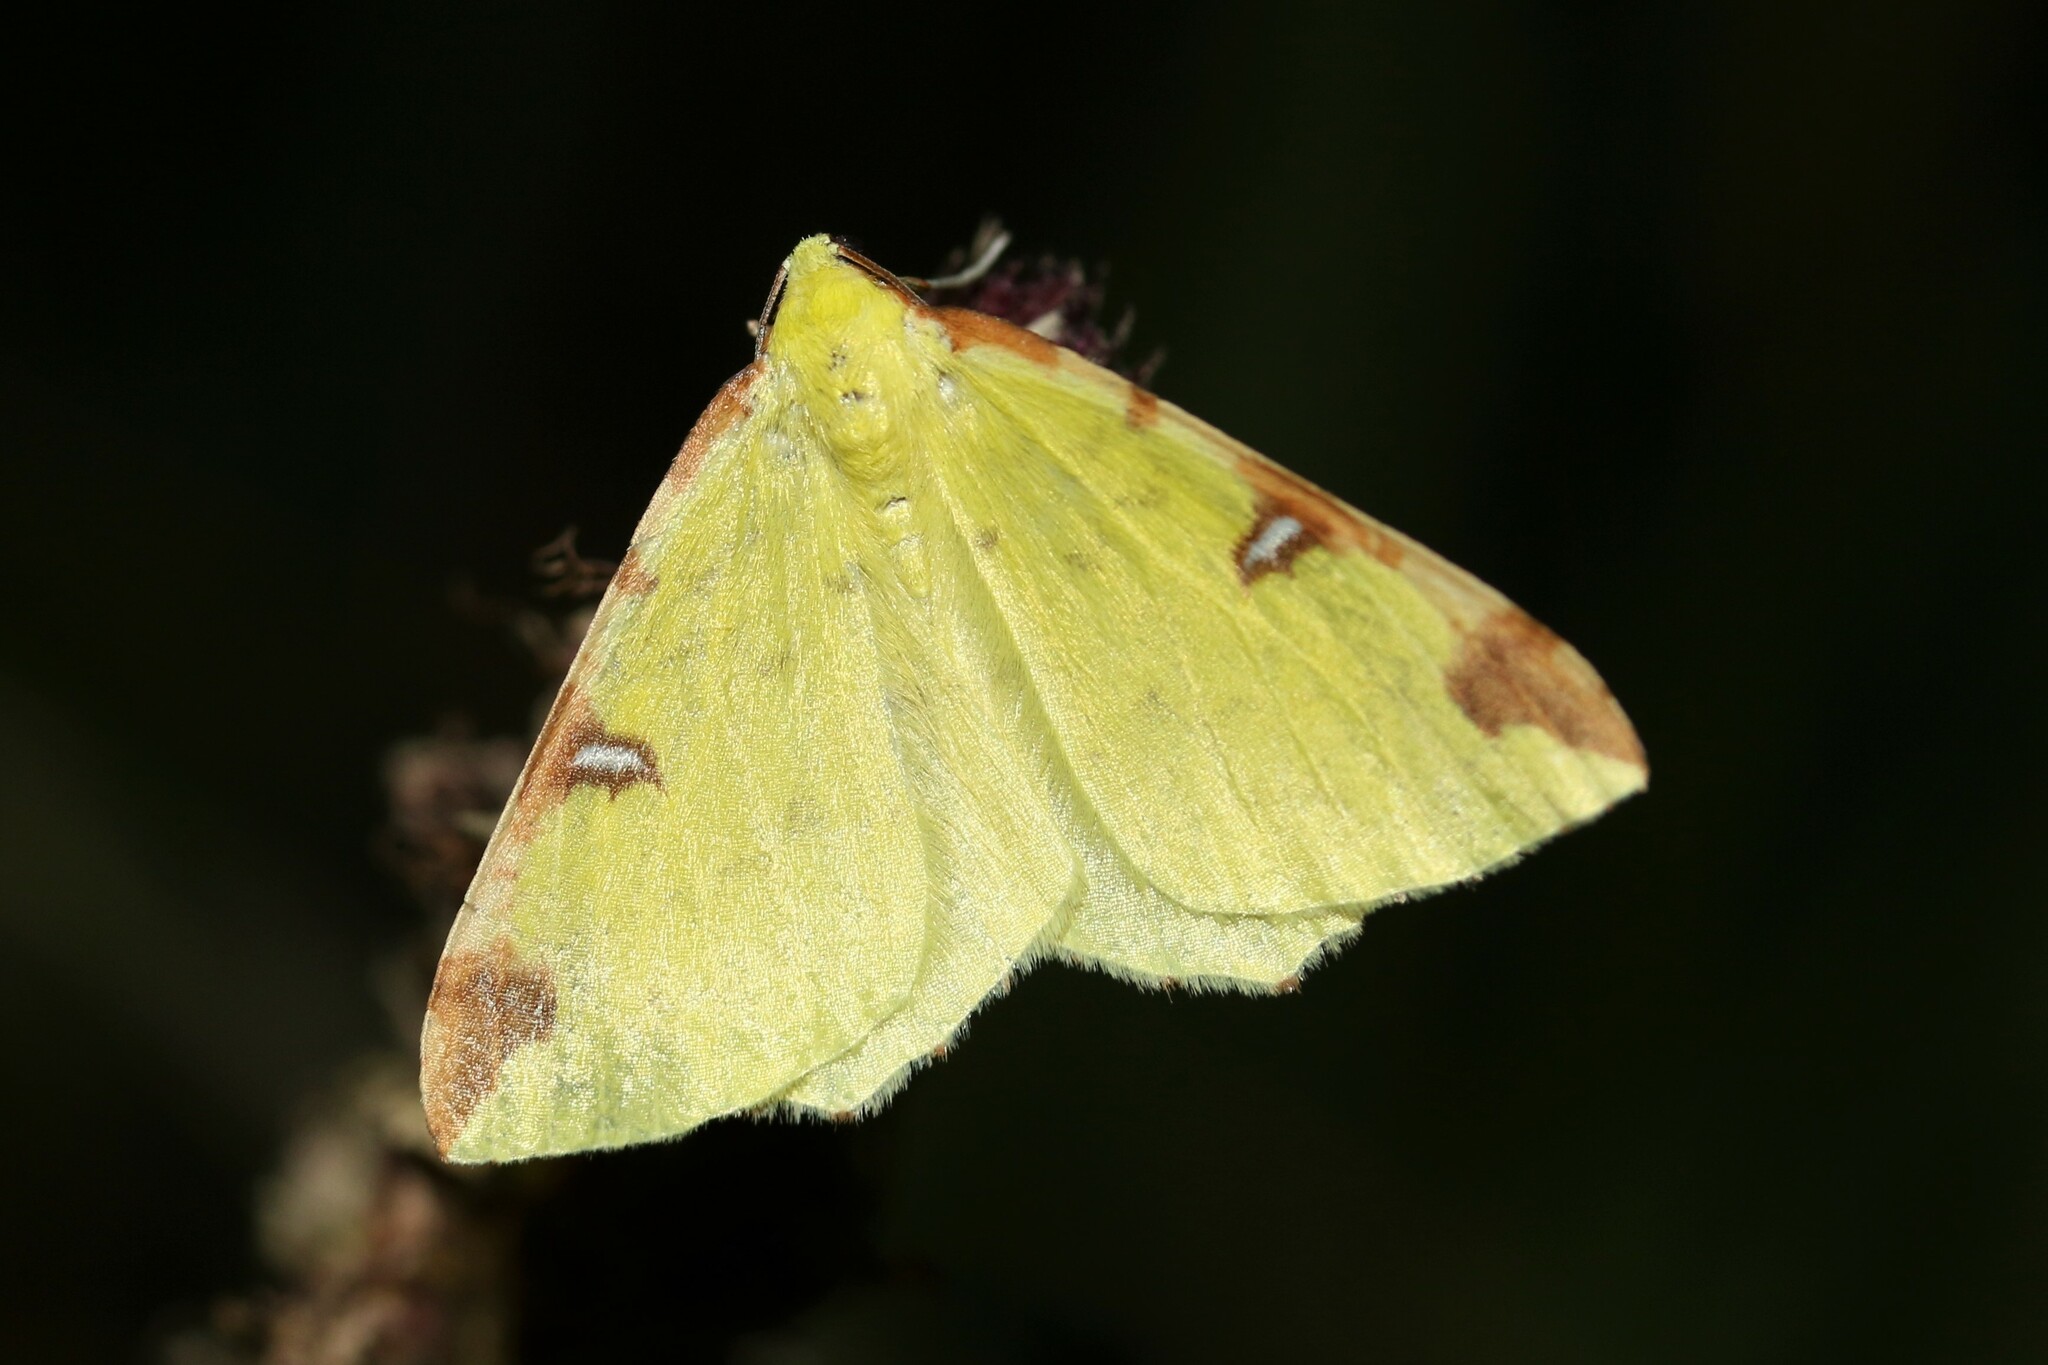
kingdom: Animalia
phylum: Arthropoda
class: Insecta
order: Lepidoptera
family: Geometridae
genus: Opisthograptis
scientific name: Opisthograptis luteolata
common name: Brimstone moth
